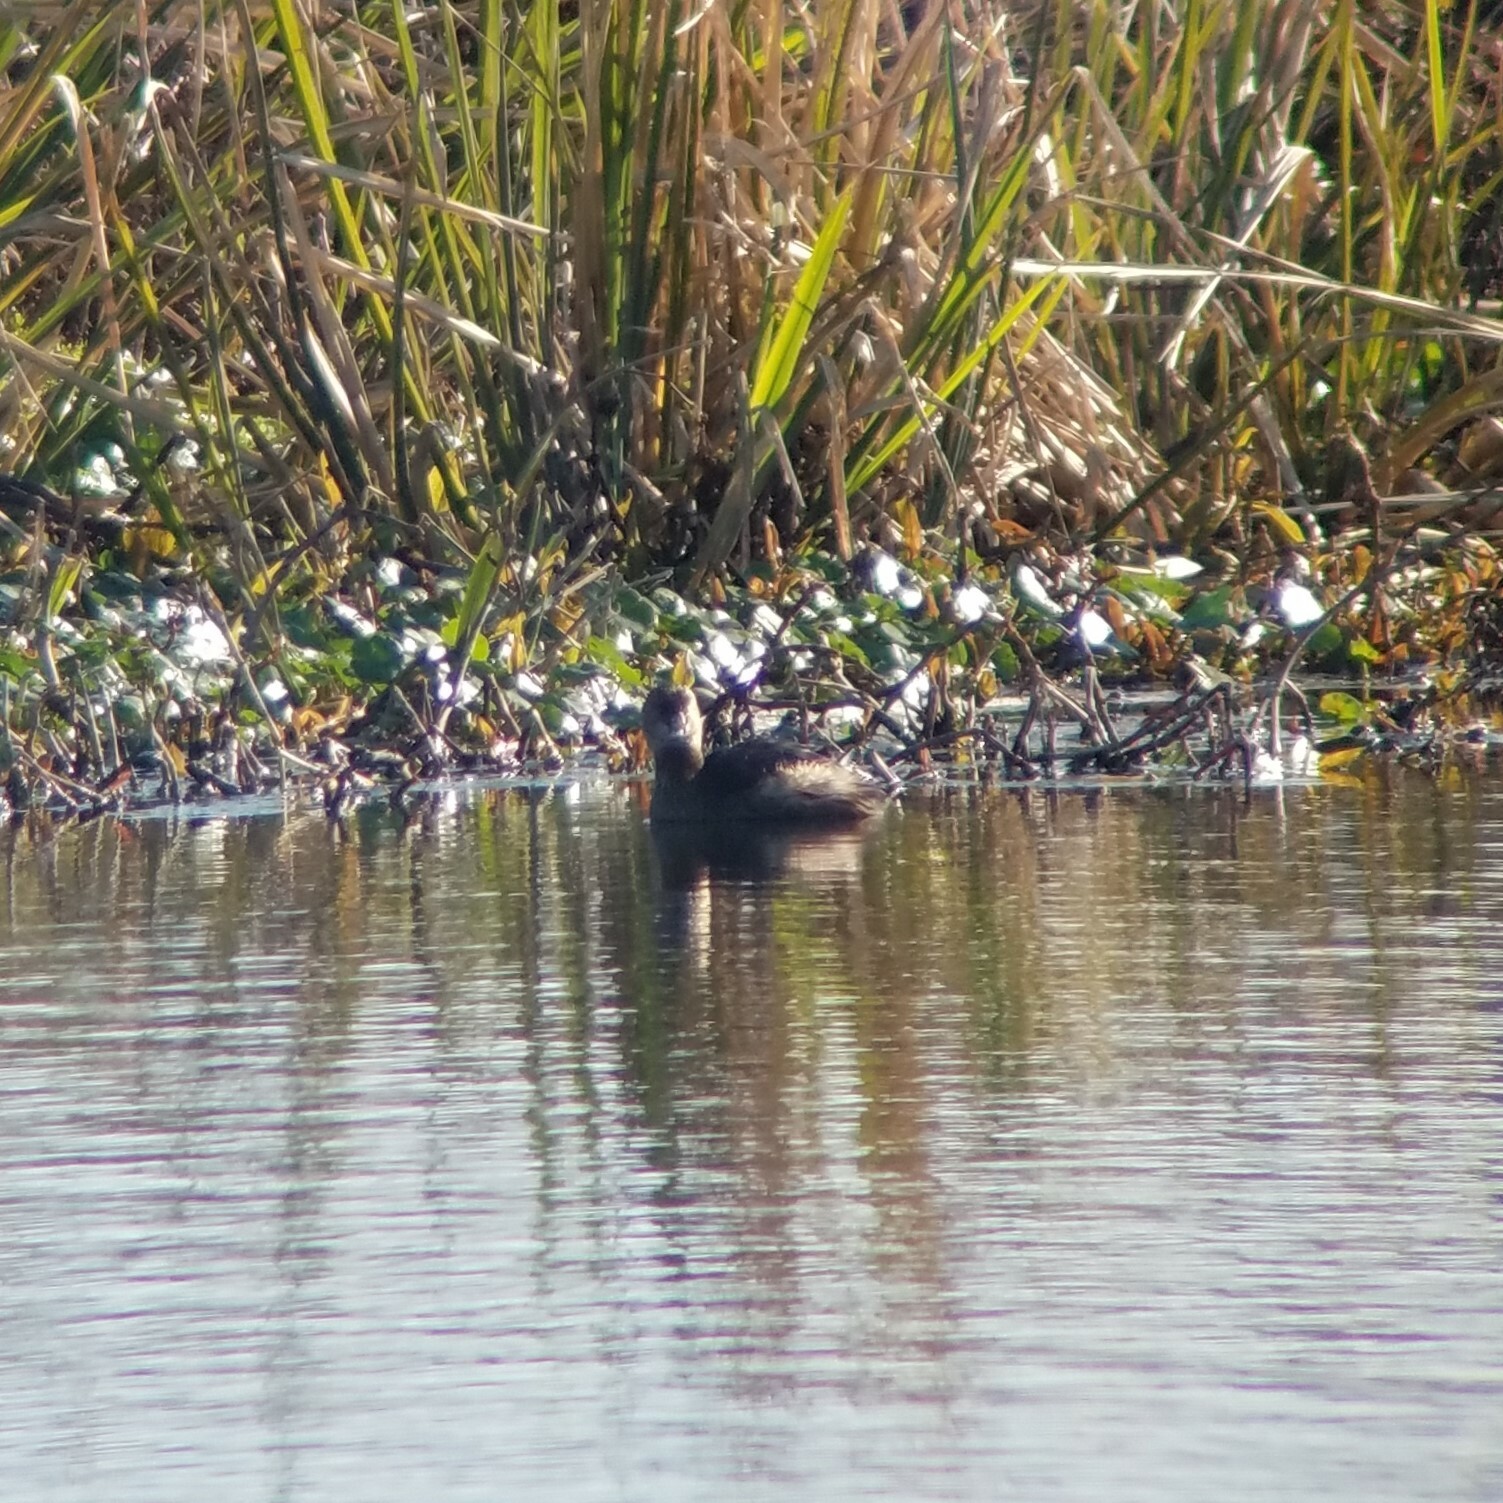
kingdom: Animalia
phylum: Chordata
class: Aves
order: Podicipediformes
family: Podicipedidae
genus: Podilymbus
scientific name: Podilymbus podiceps
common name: Pied-billed grebe
